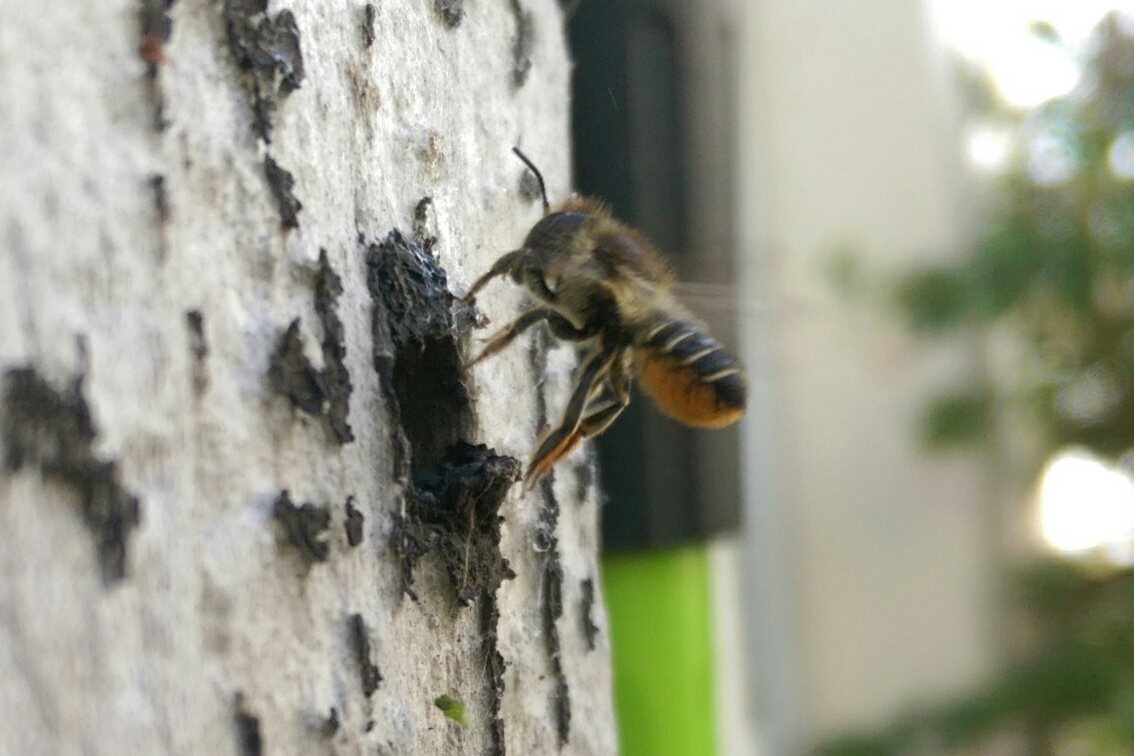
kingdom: Animalia
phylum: Arthropoda
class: Insecta
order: Hymenoptera
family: Megachilidae
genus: Megachile
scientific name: Megachile centuncularis
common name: Patchwork leafcutter bee
